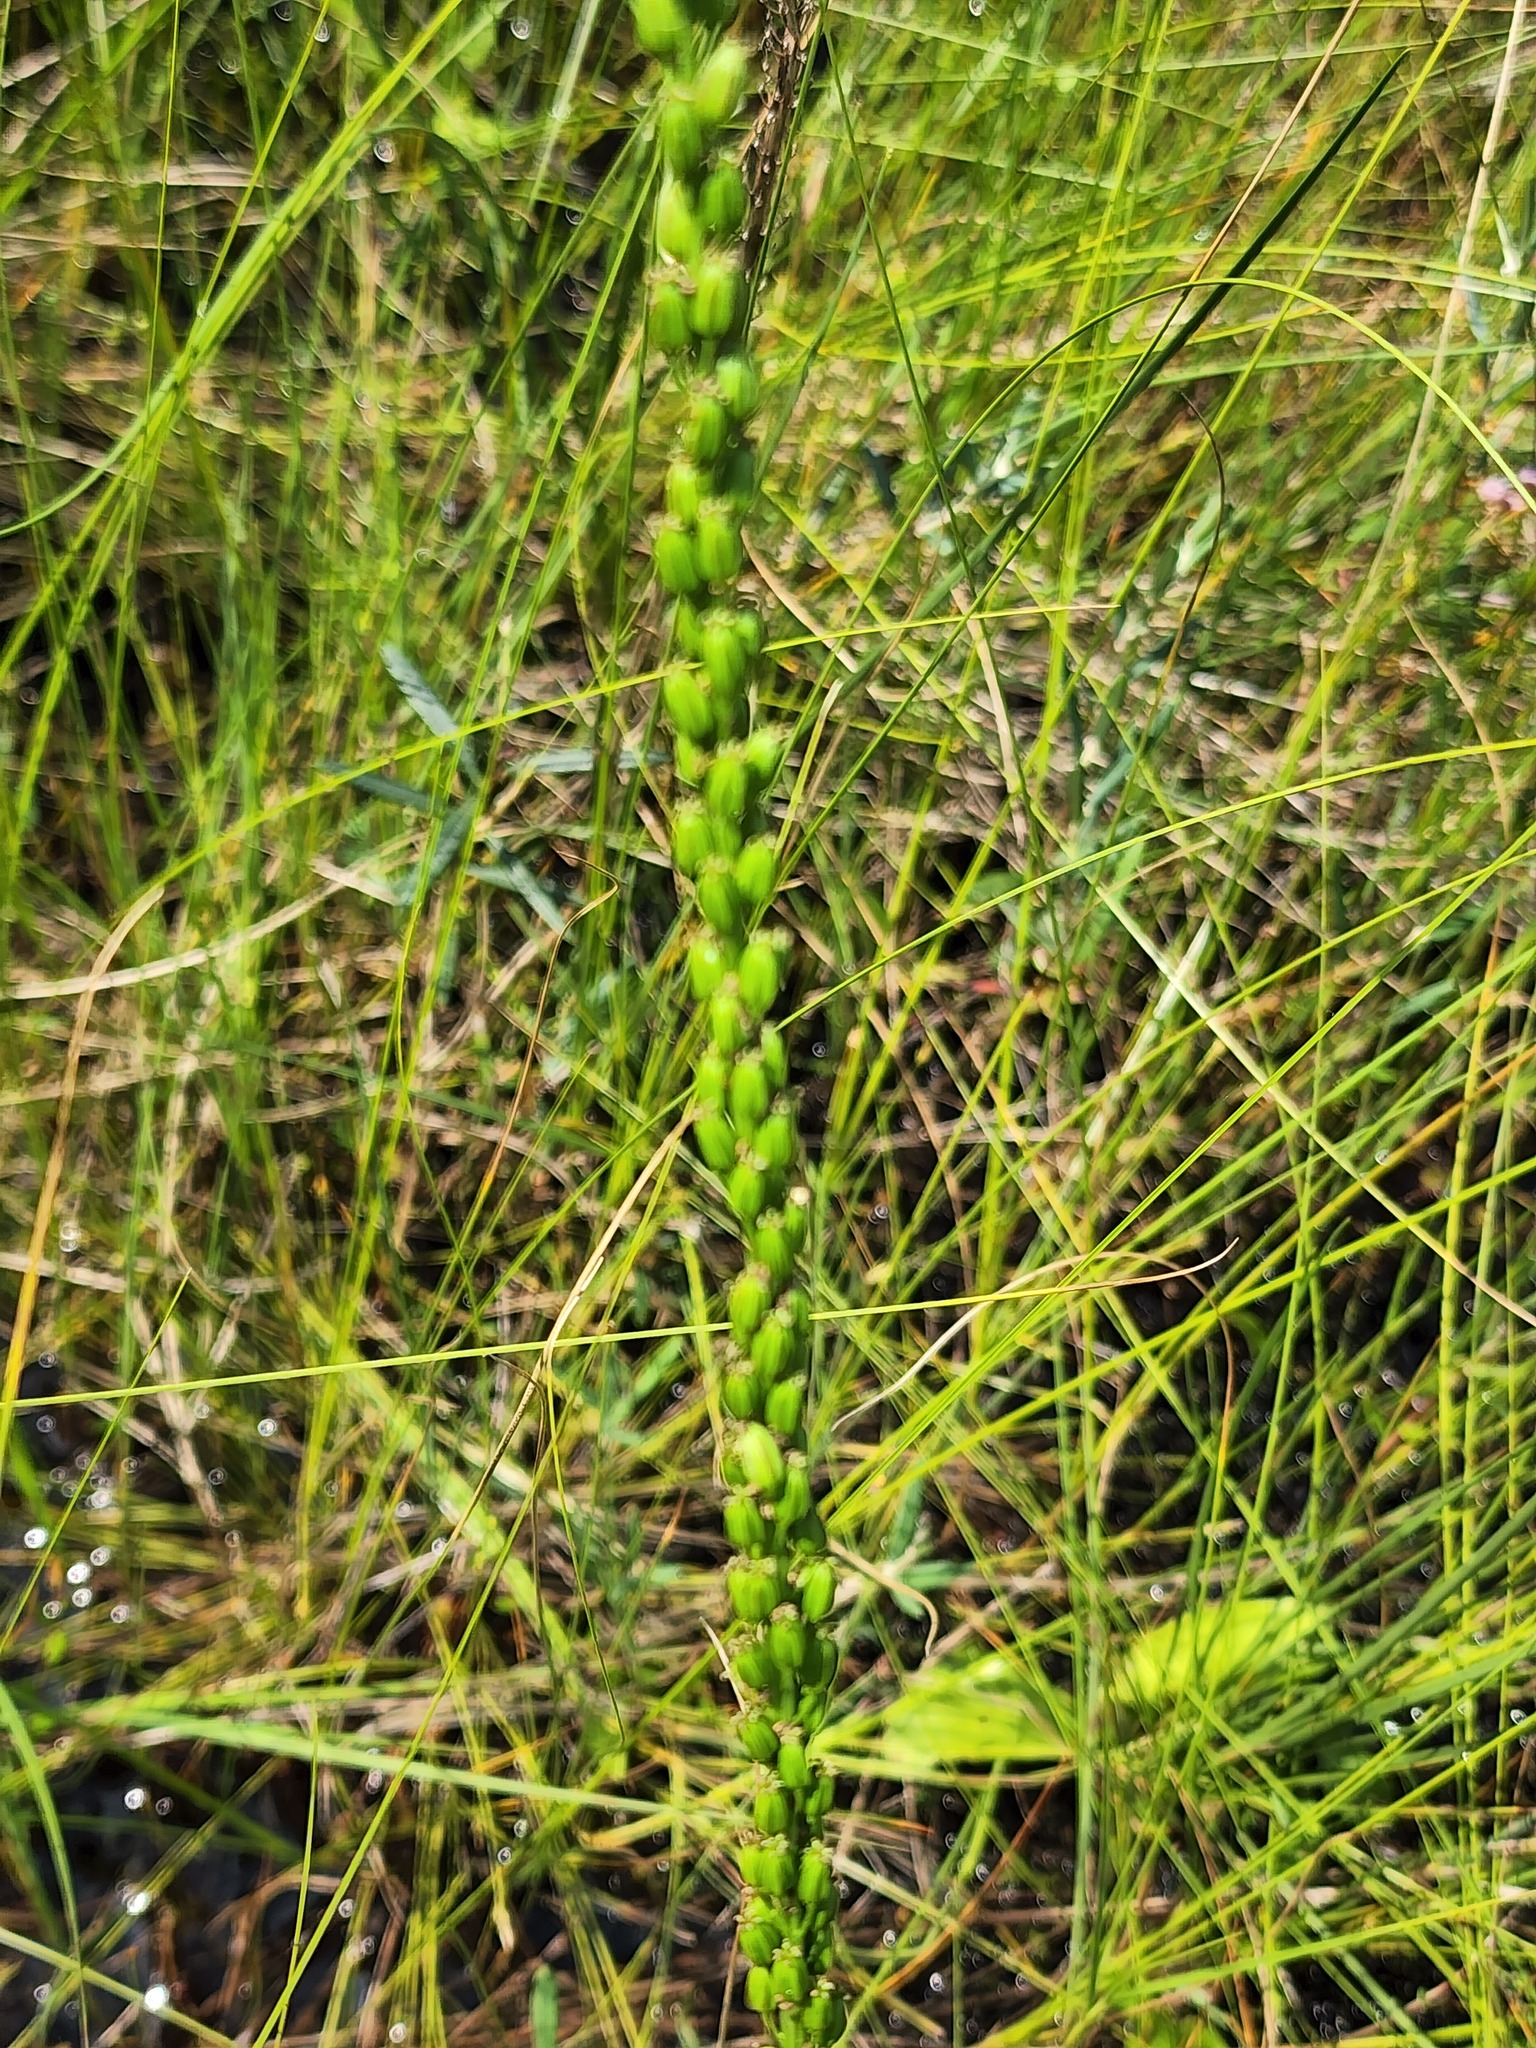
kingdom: Plantae
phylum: Tracheophyta
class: Liliopsida
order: Alismatales
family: Juncaginaceae
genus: Triglochin
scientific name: Triglochin maritima
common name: Sea arrowgrass
